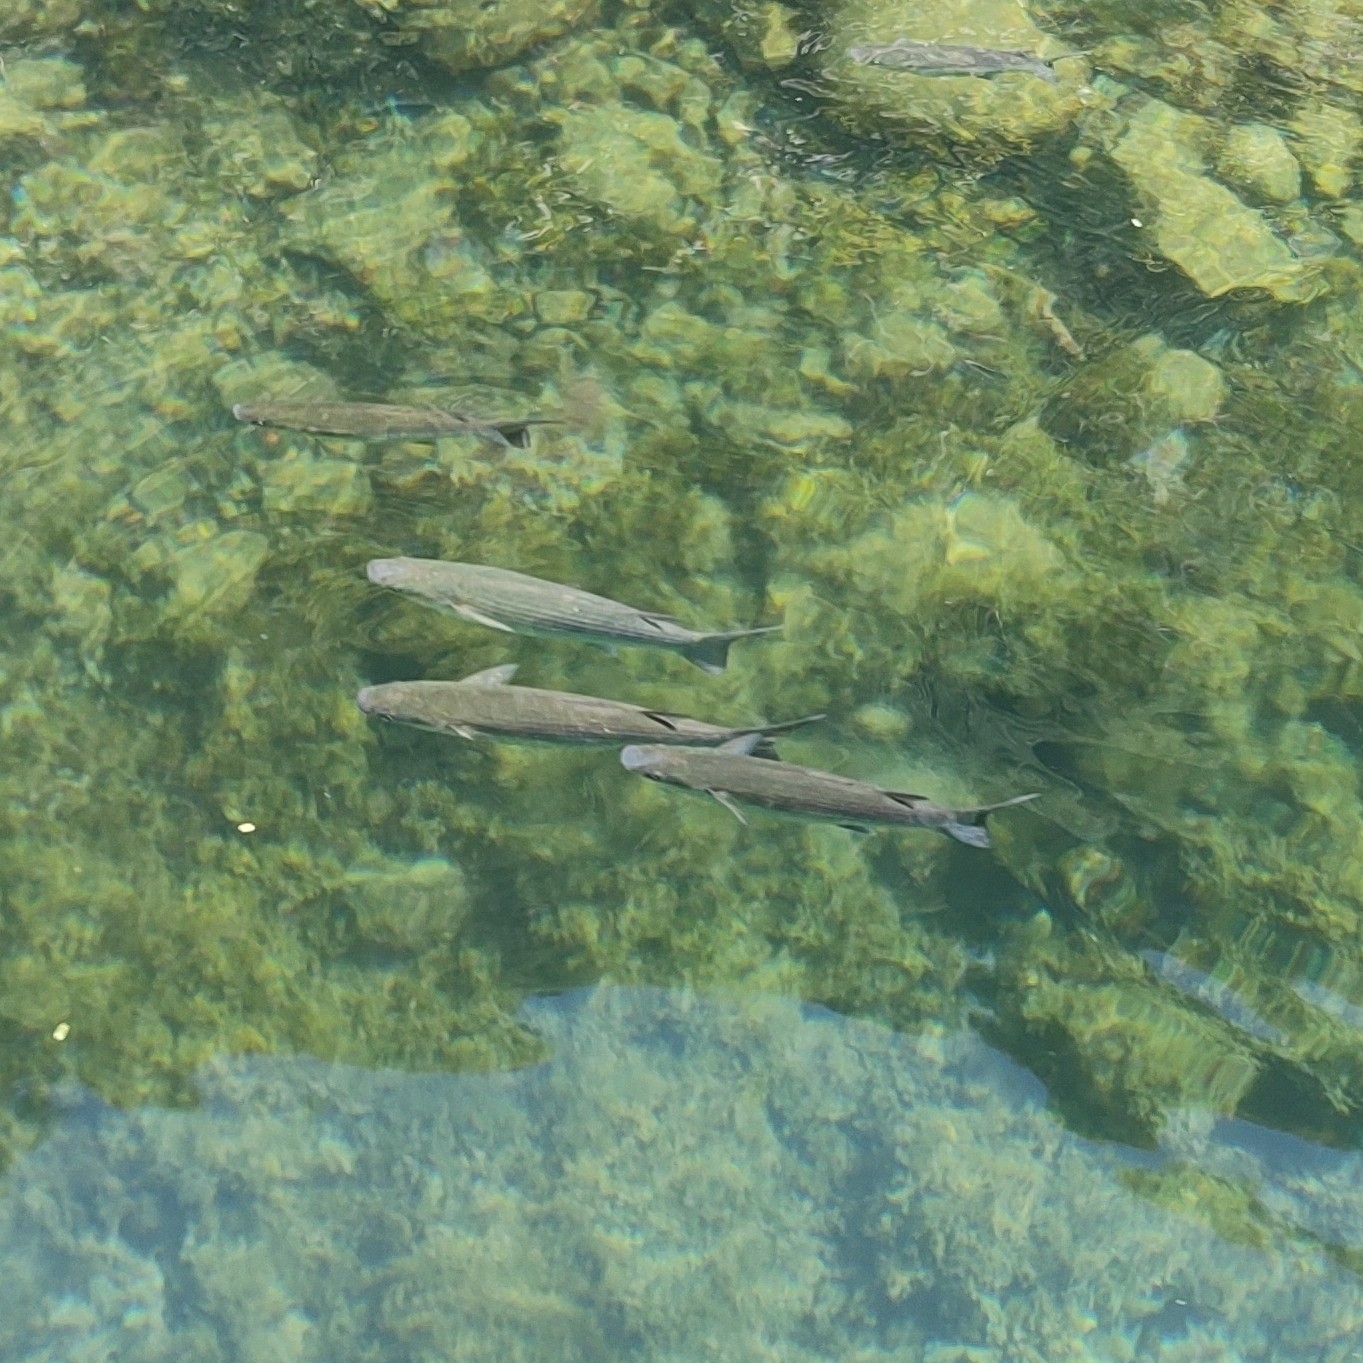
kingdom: Animalia
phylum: Chordata
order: Mugiliformes
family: Mugilidae
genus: Chelon
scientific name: Chelon labrosus
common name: Thick-lipped mullet
